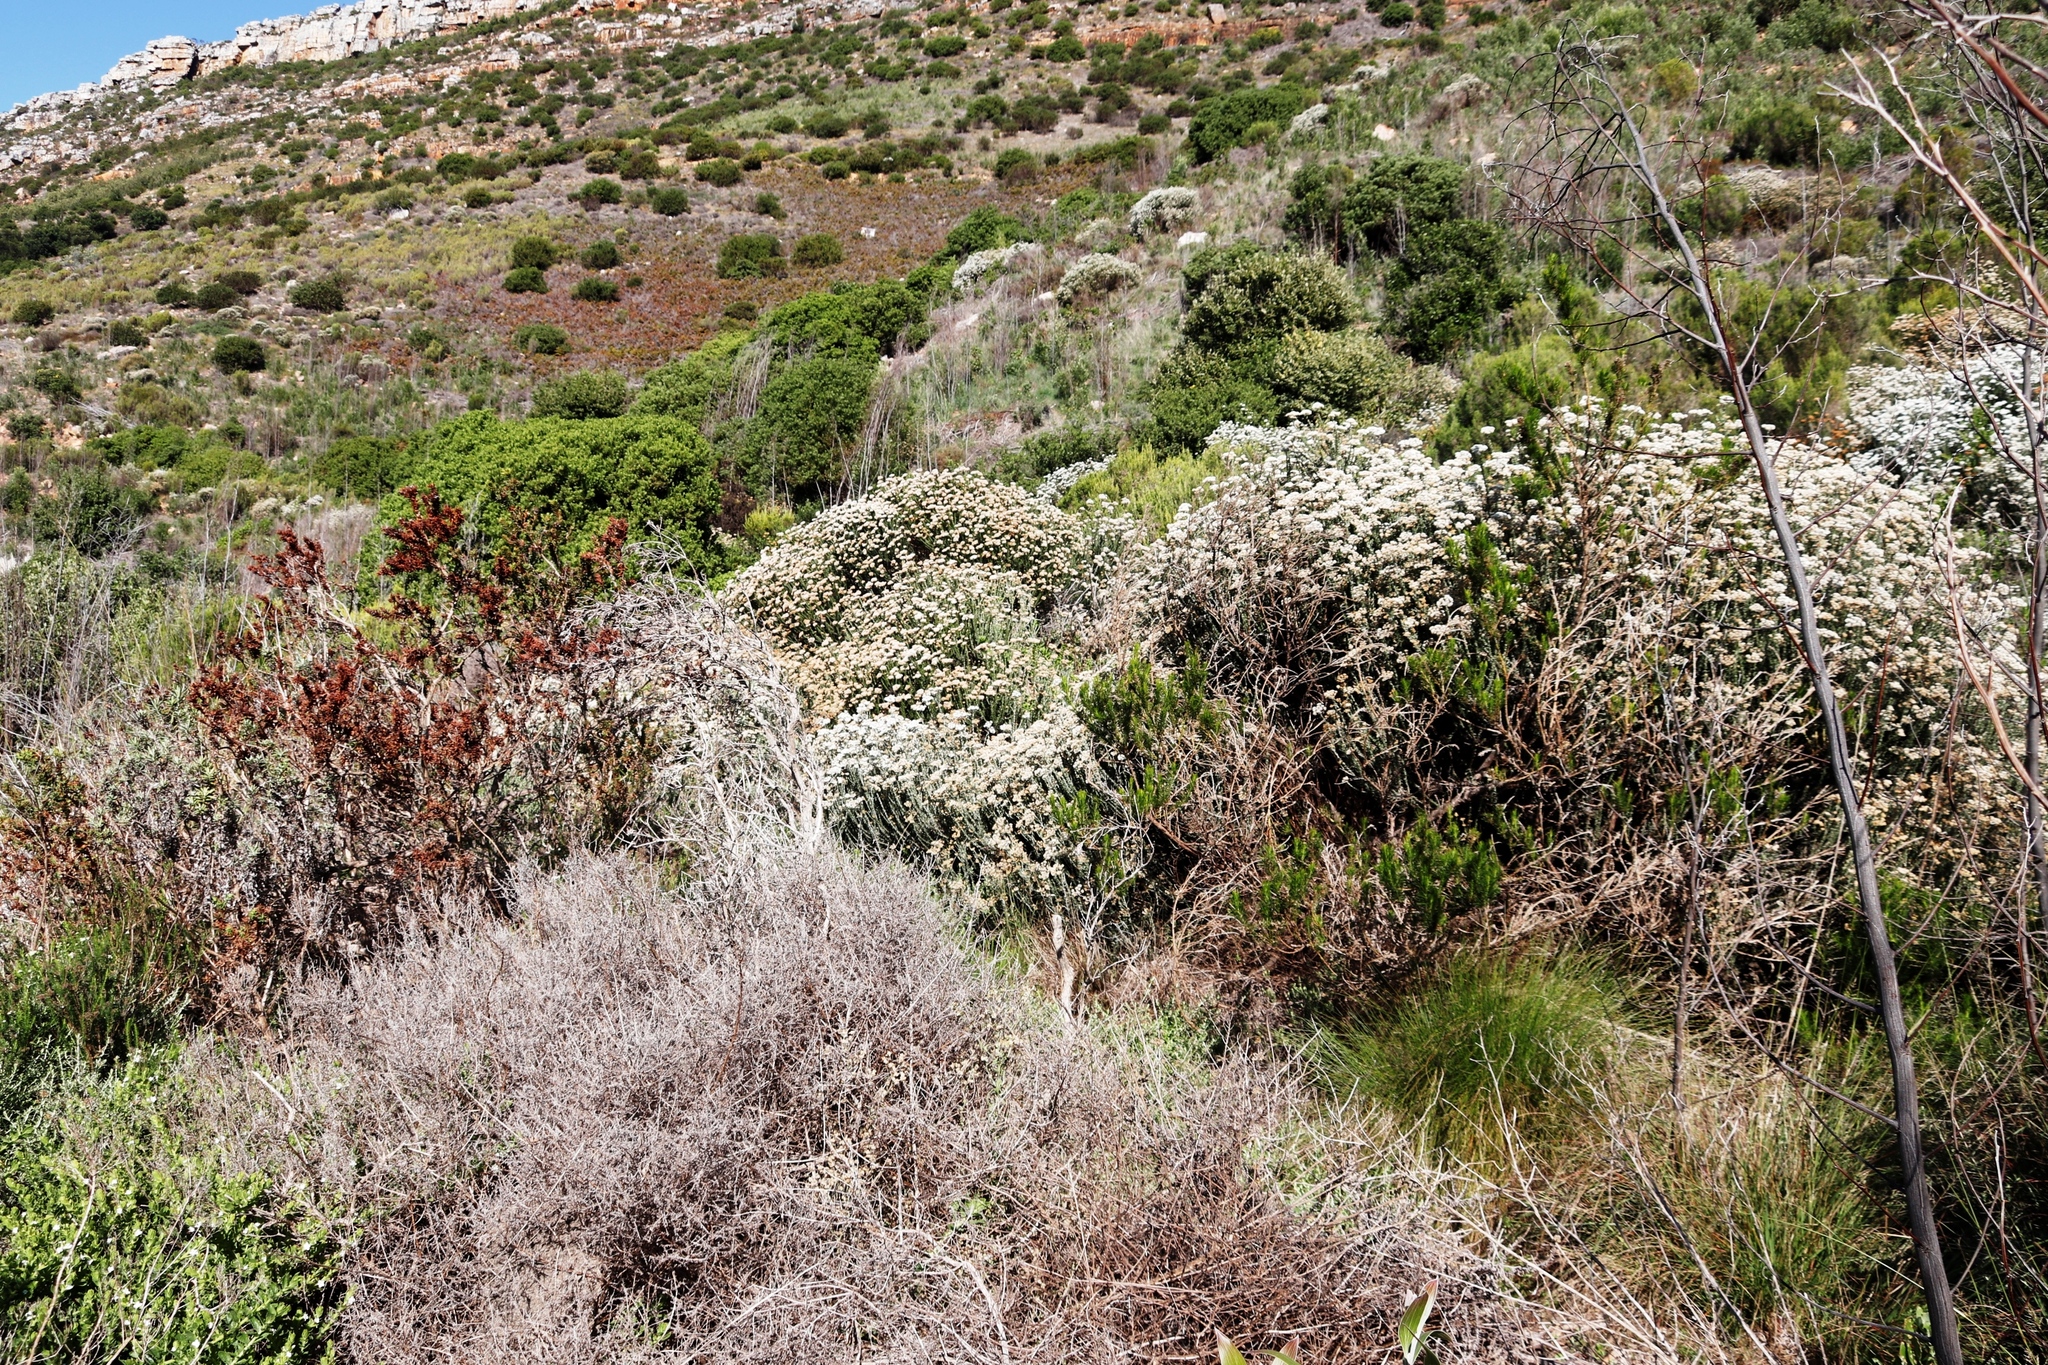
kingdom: Plantae
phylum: Tracheophyta
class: Magnoliopsida
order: Asterales
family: Asteraceae
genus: Metalasia
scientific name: Metalasia densa
